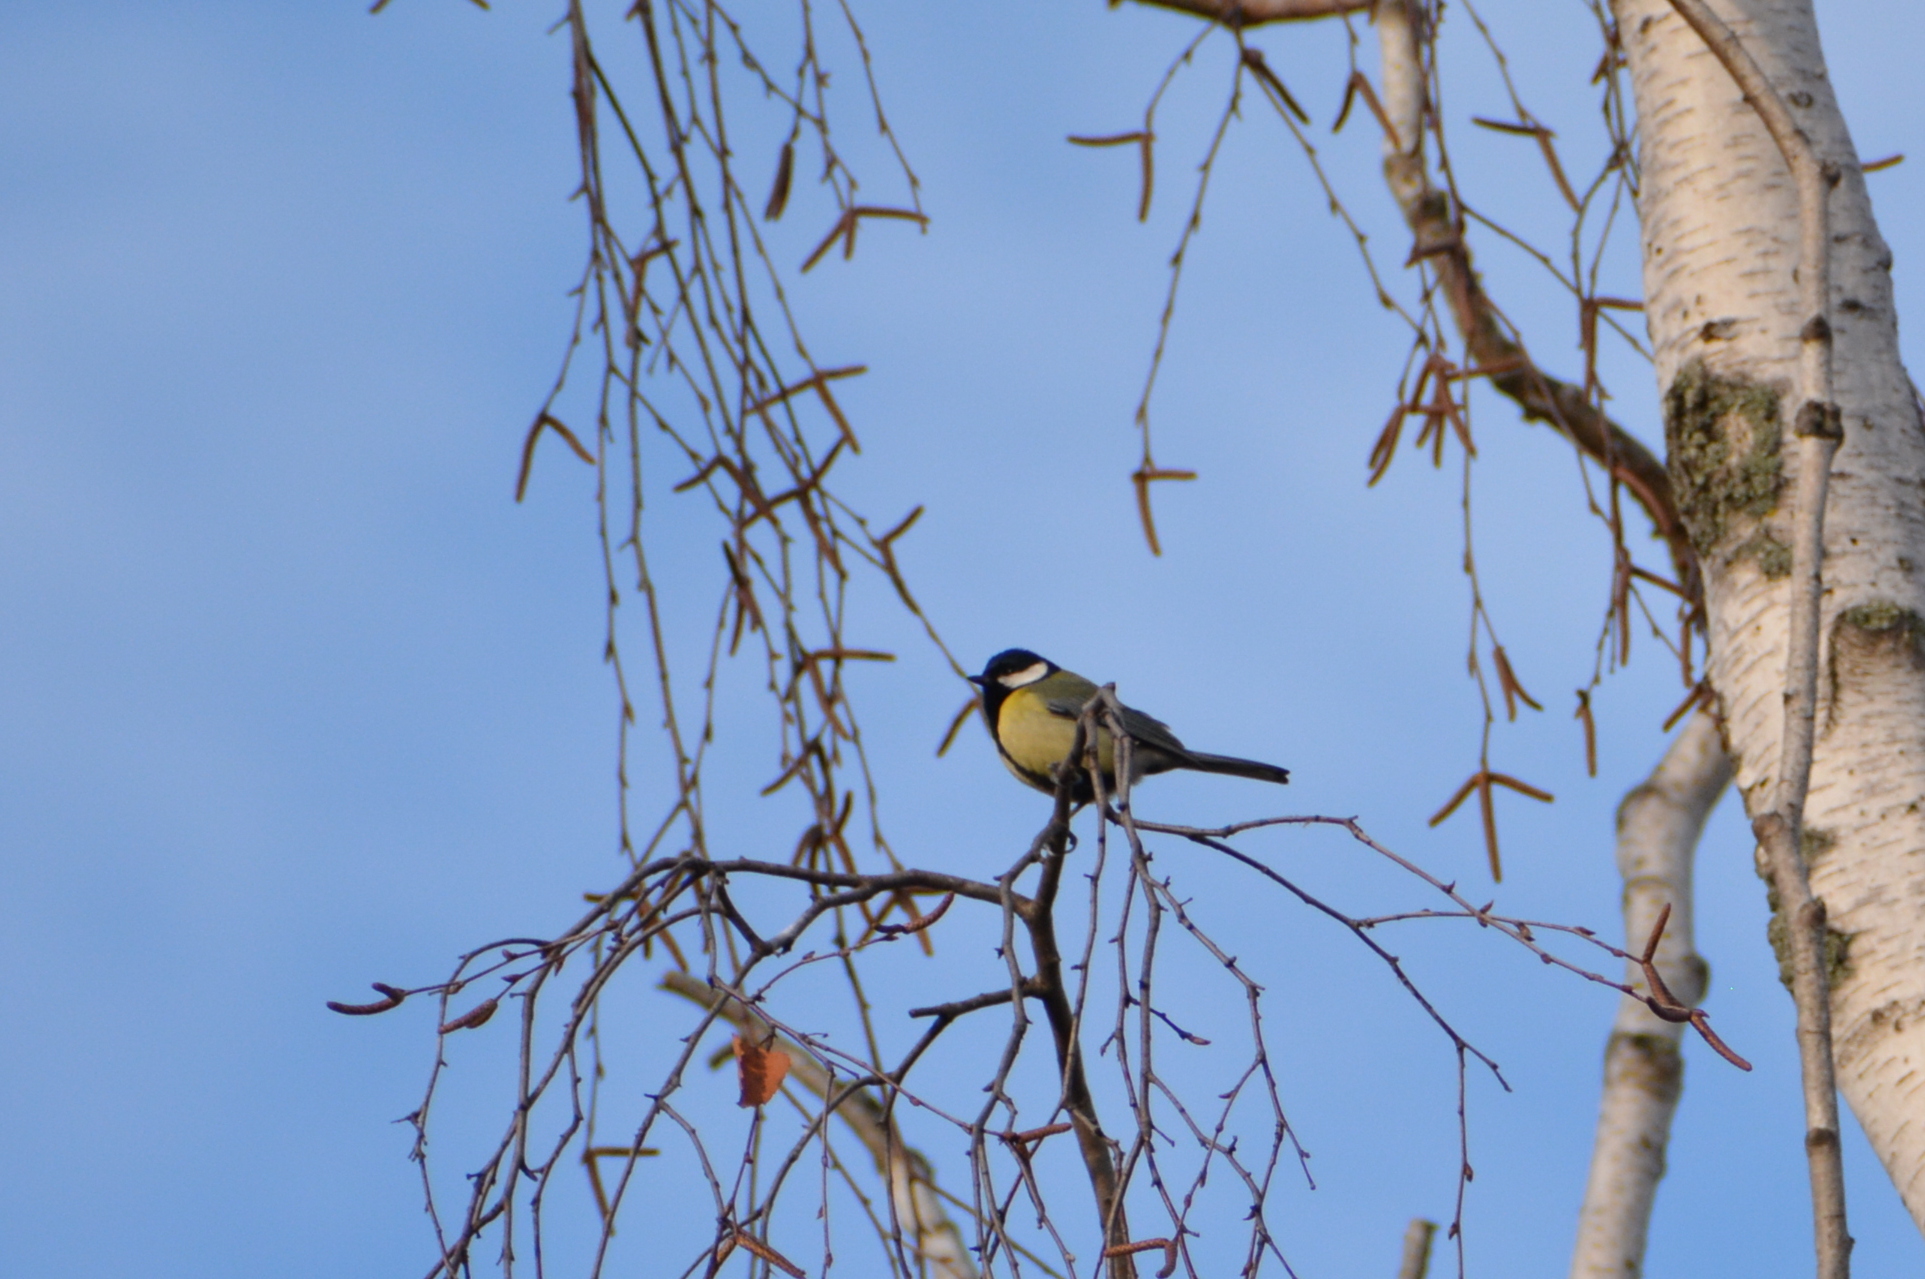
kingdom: Animalia
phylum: Chordata
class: Aves
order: Passeriformes
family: Paridae
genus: Parus
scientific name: Parus major
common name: Great tit
